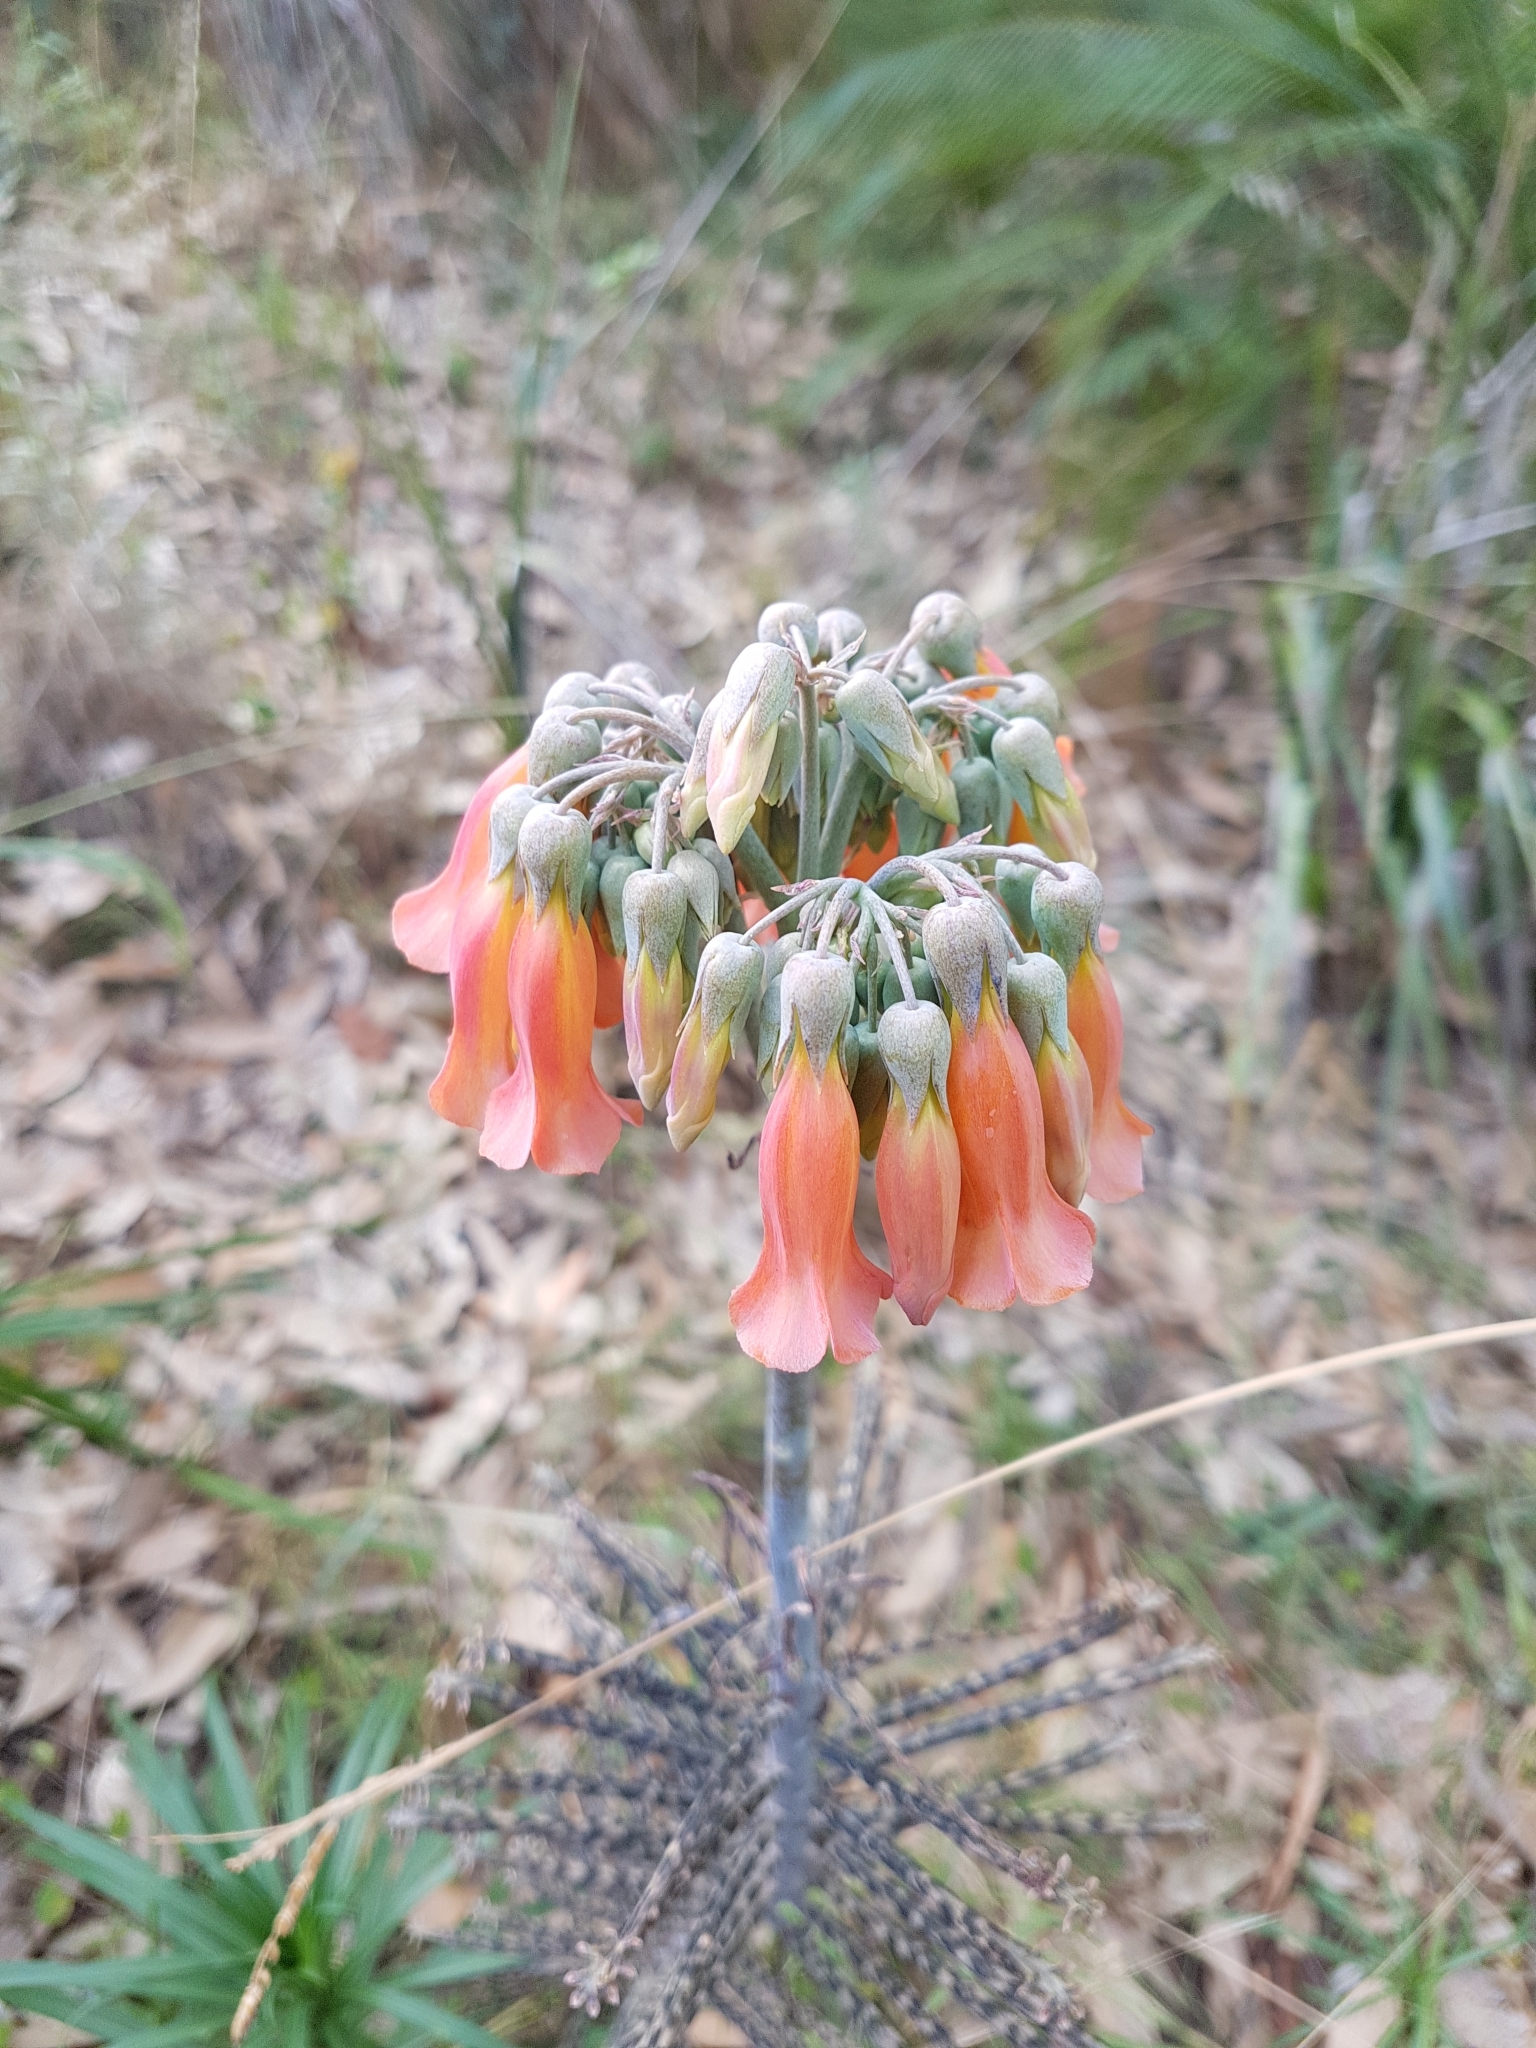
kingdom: Plantae
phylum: Tracheophyta
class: Magnoliopsida
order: Saxifragales
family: Crassulaceae
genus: Kalanchoe
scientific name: Kalanchoe delagoensis
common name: Chandelier plant
